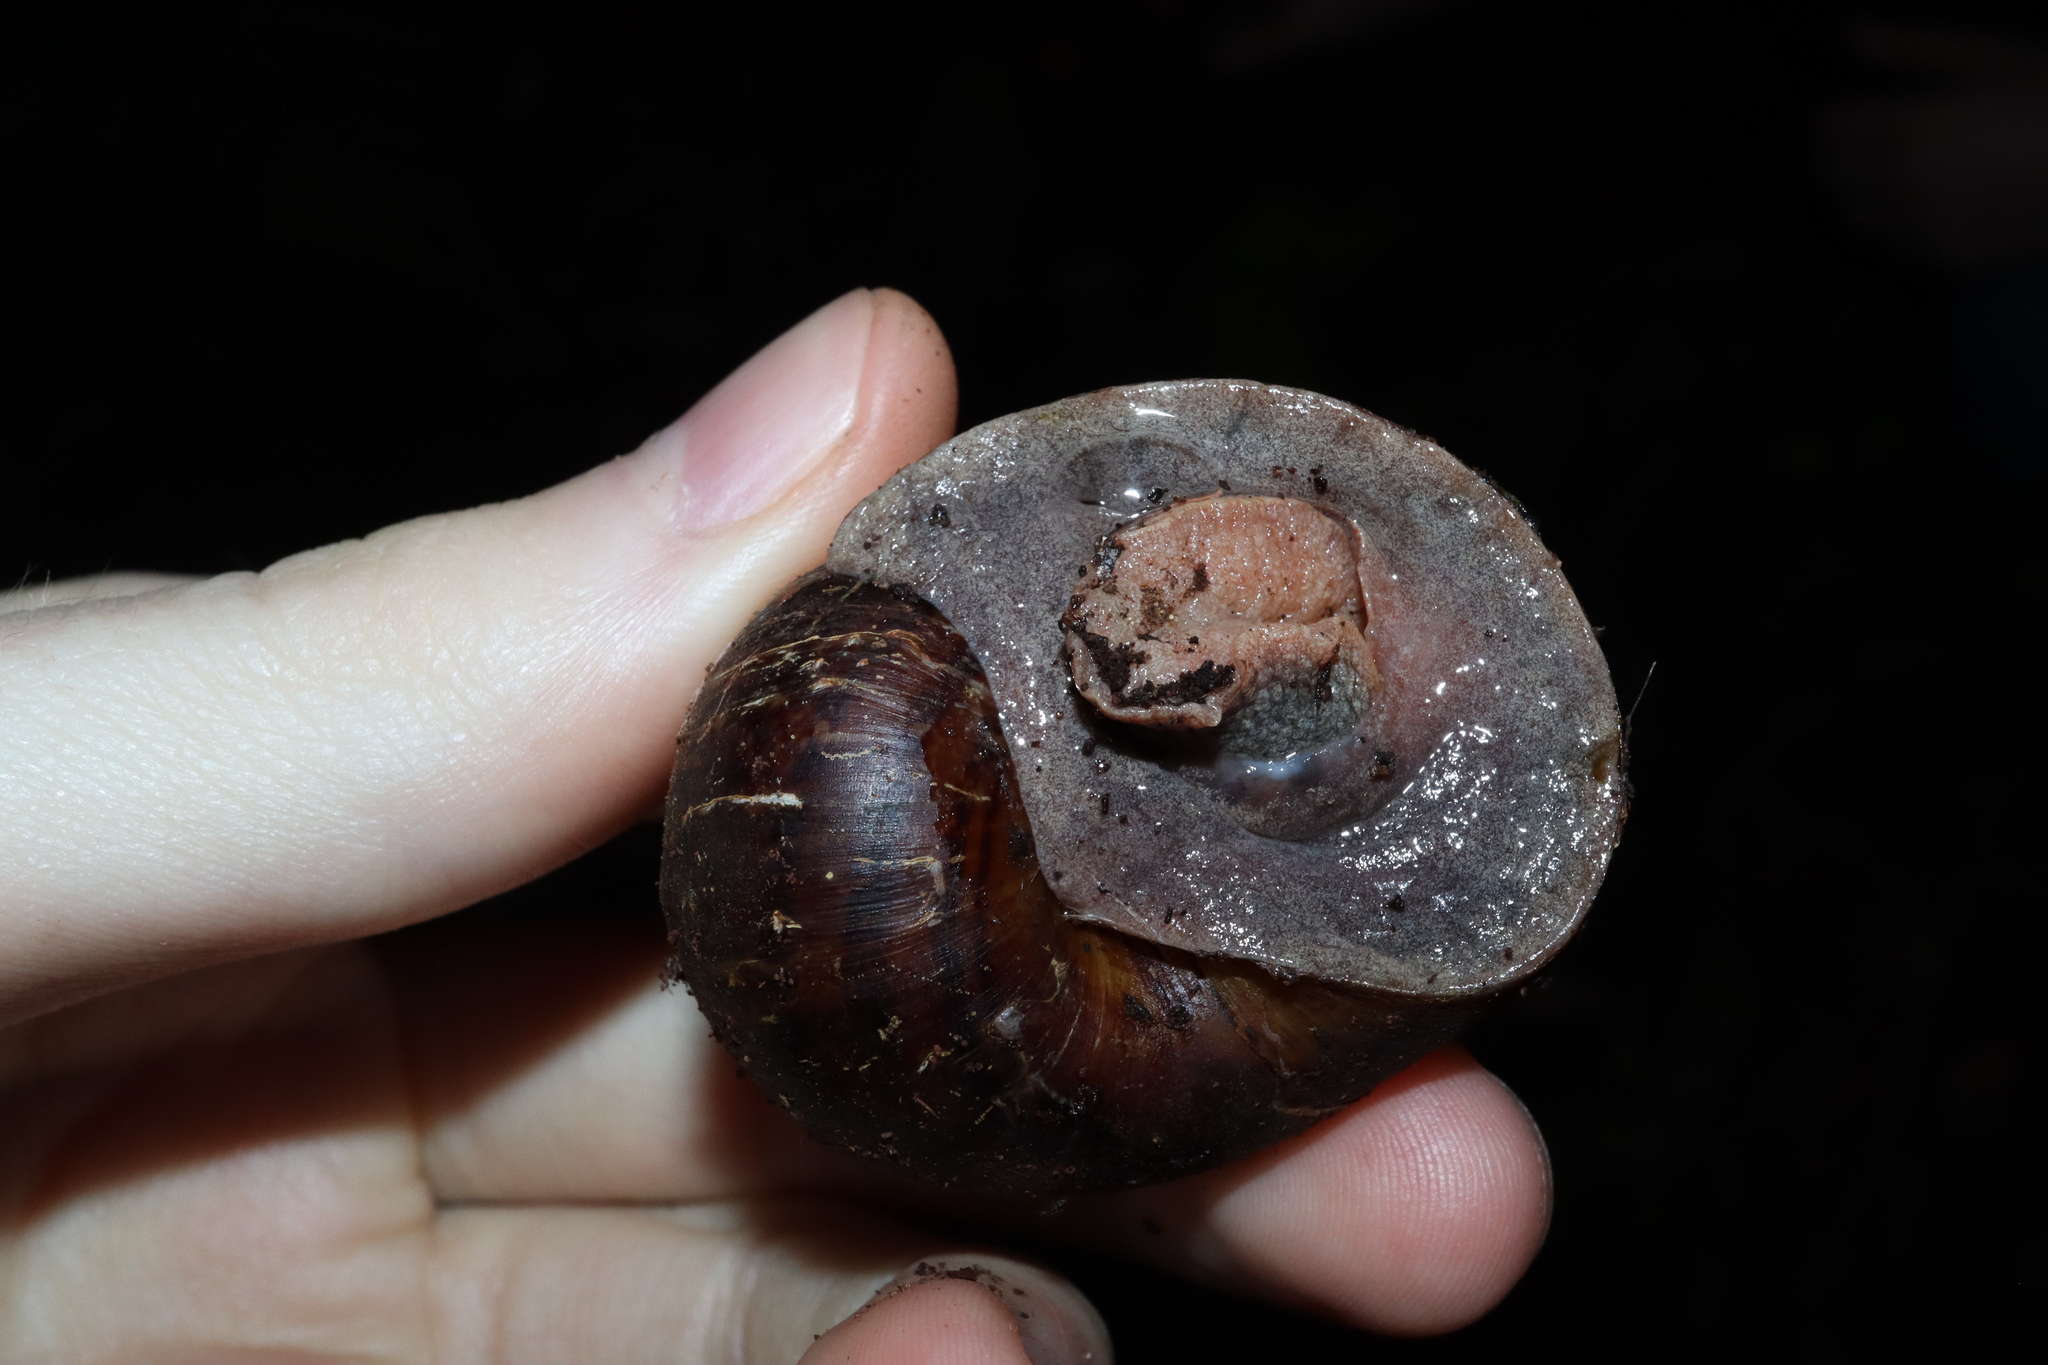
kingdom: Animalia
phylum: Mollusca
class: Gastropoda
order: Stylommatophora
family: Caryodidae
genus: Hedleyella
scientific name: Hedleyella falconeri
